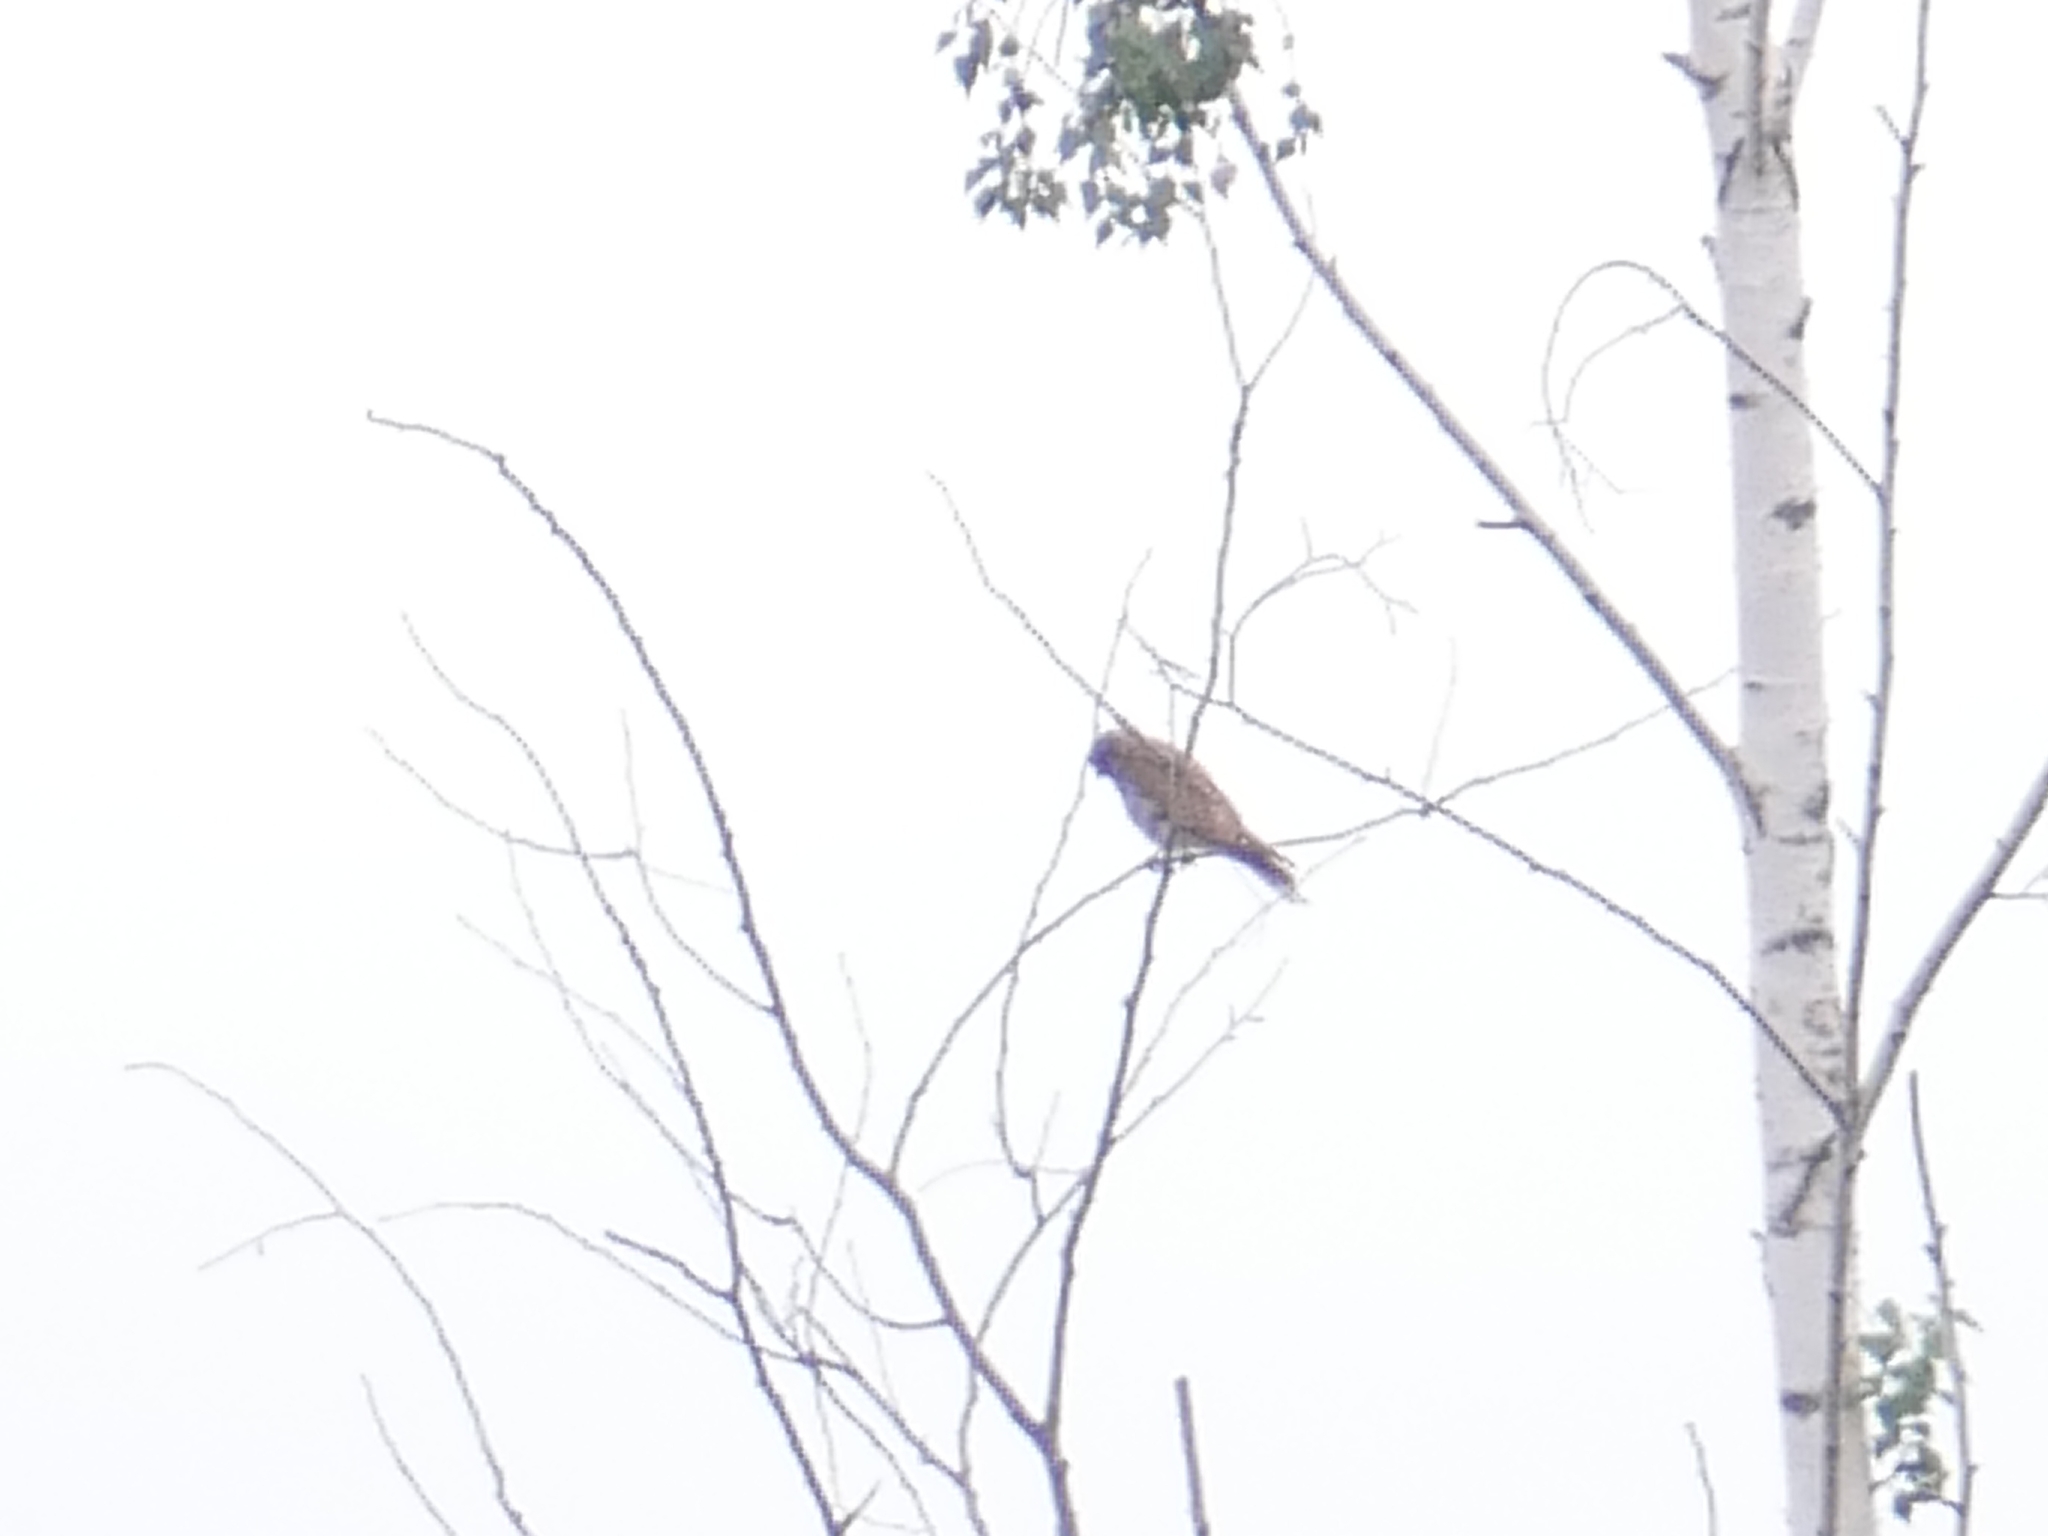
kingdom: Animalia
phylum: Chordata
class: Aves
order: Falconiformes
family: Falconidae
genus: Falco
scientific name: Falco tinnunculus
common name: Common kestrel
